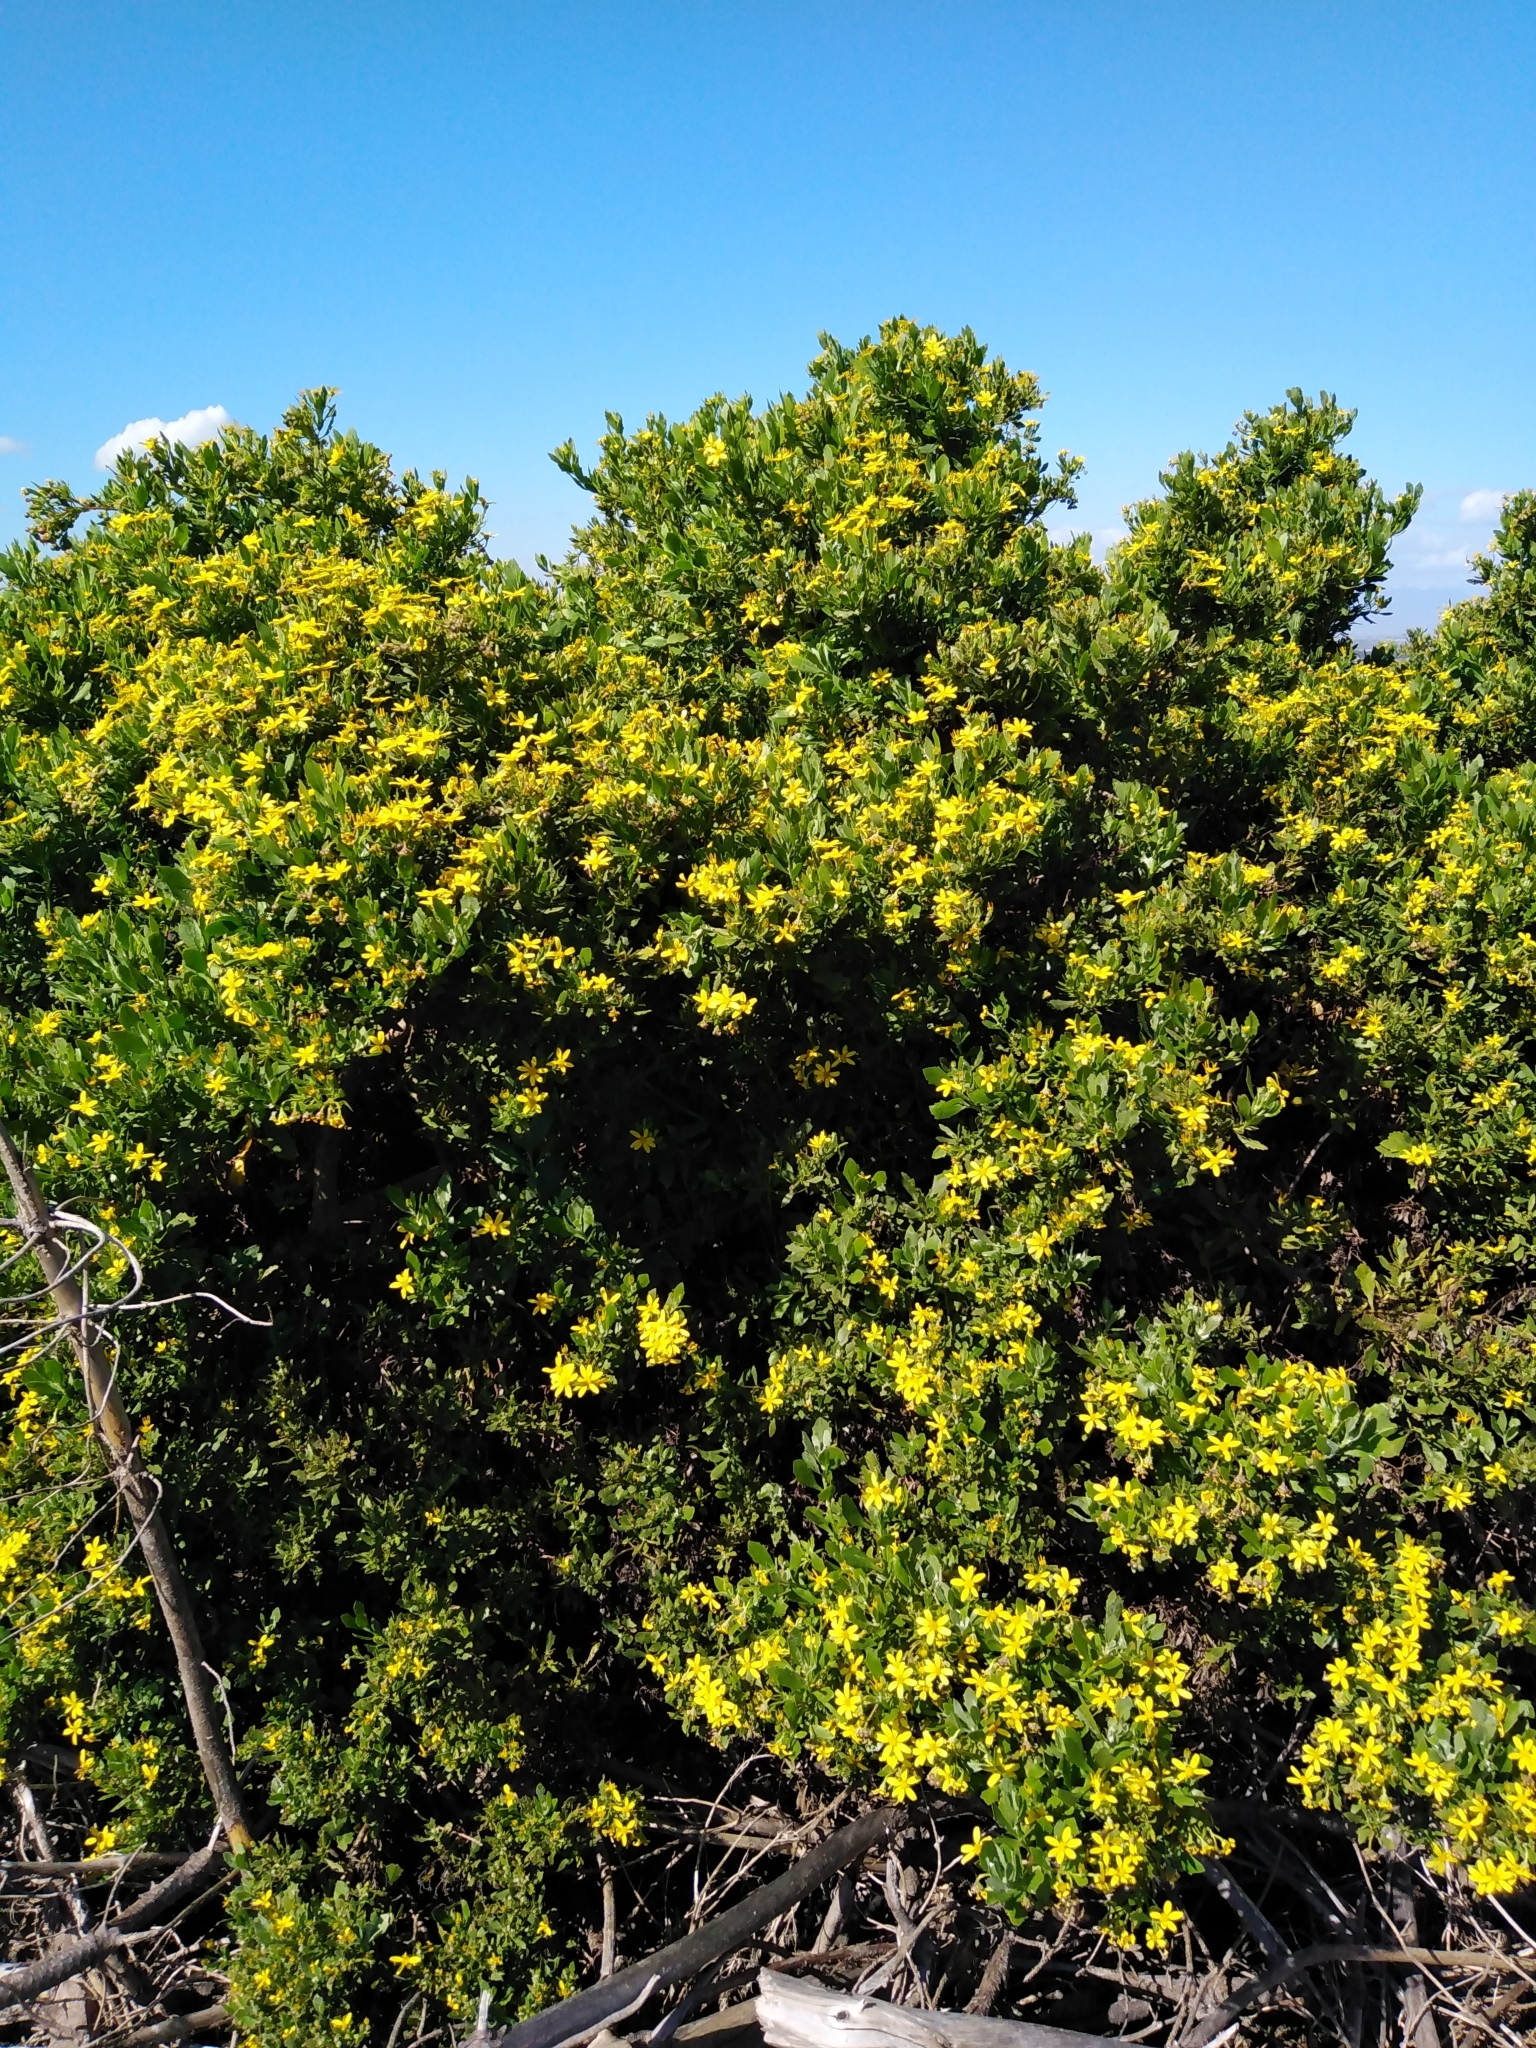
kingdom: Plantae
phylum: Tracheophyta
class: Magnoliopsida
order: Asterales
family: Asteraceae
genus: Osteospermum
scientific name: Osteospermum moniliferum
